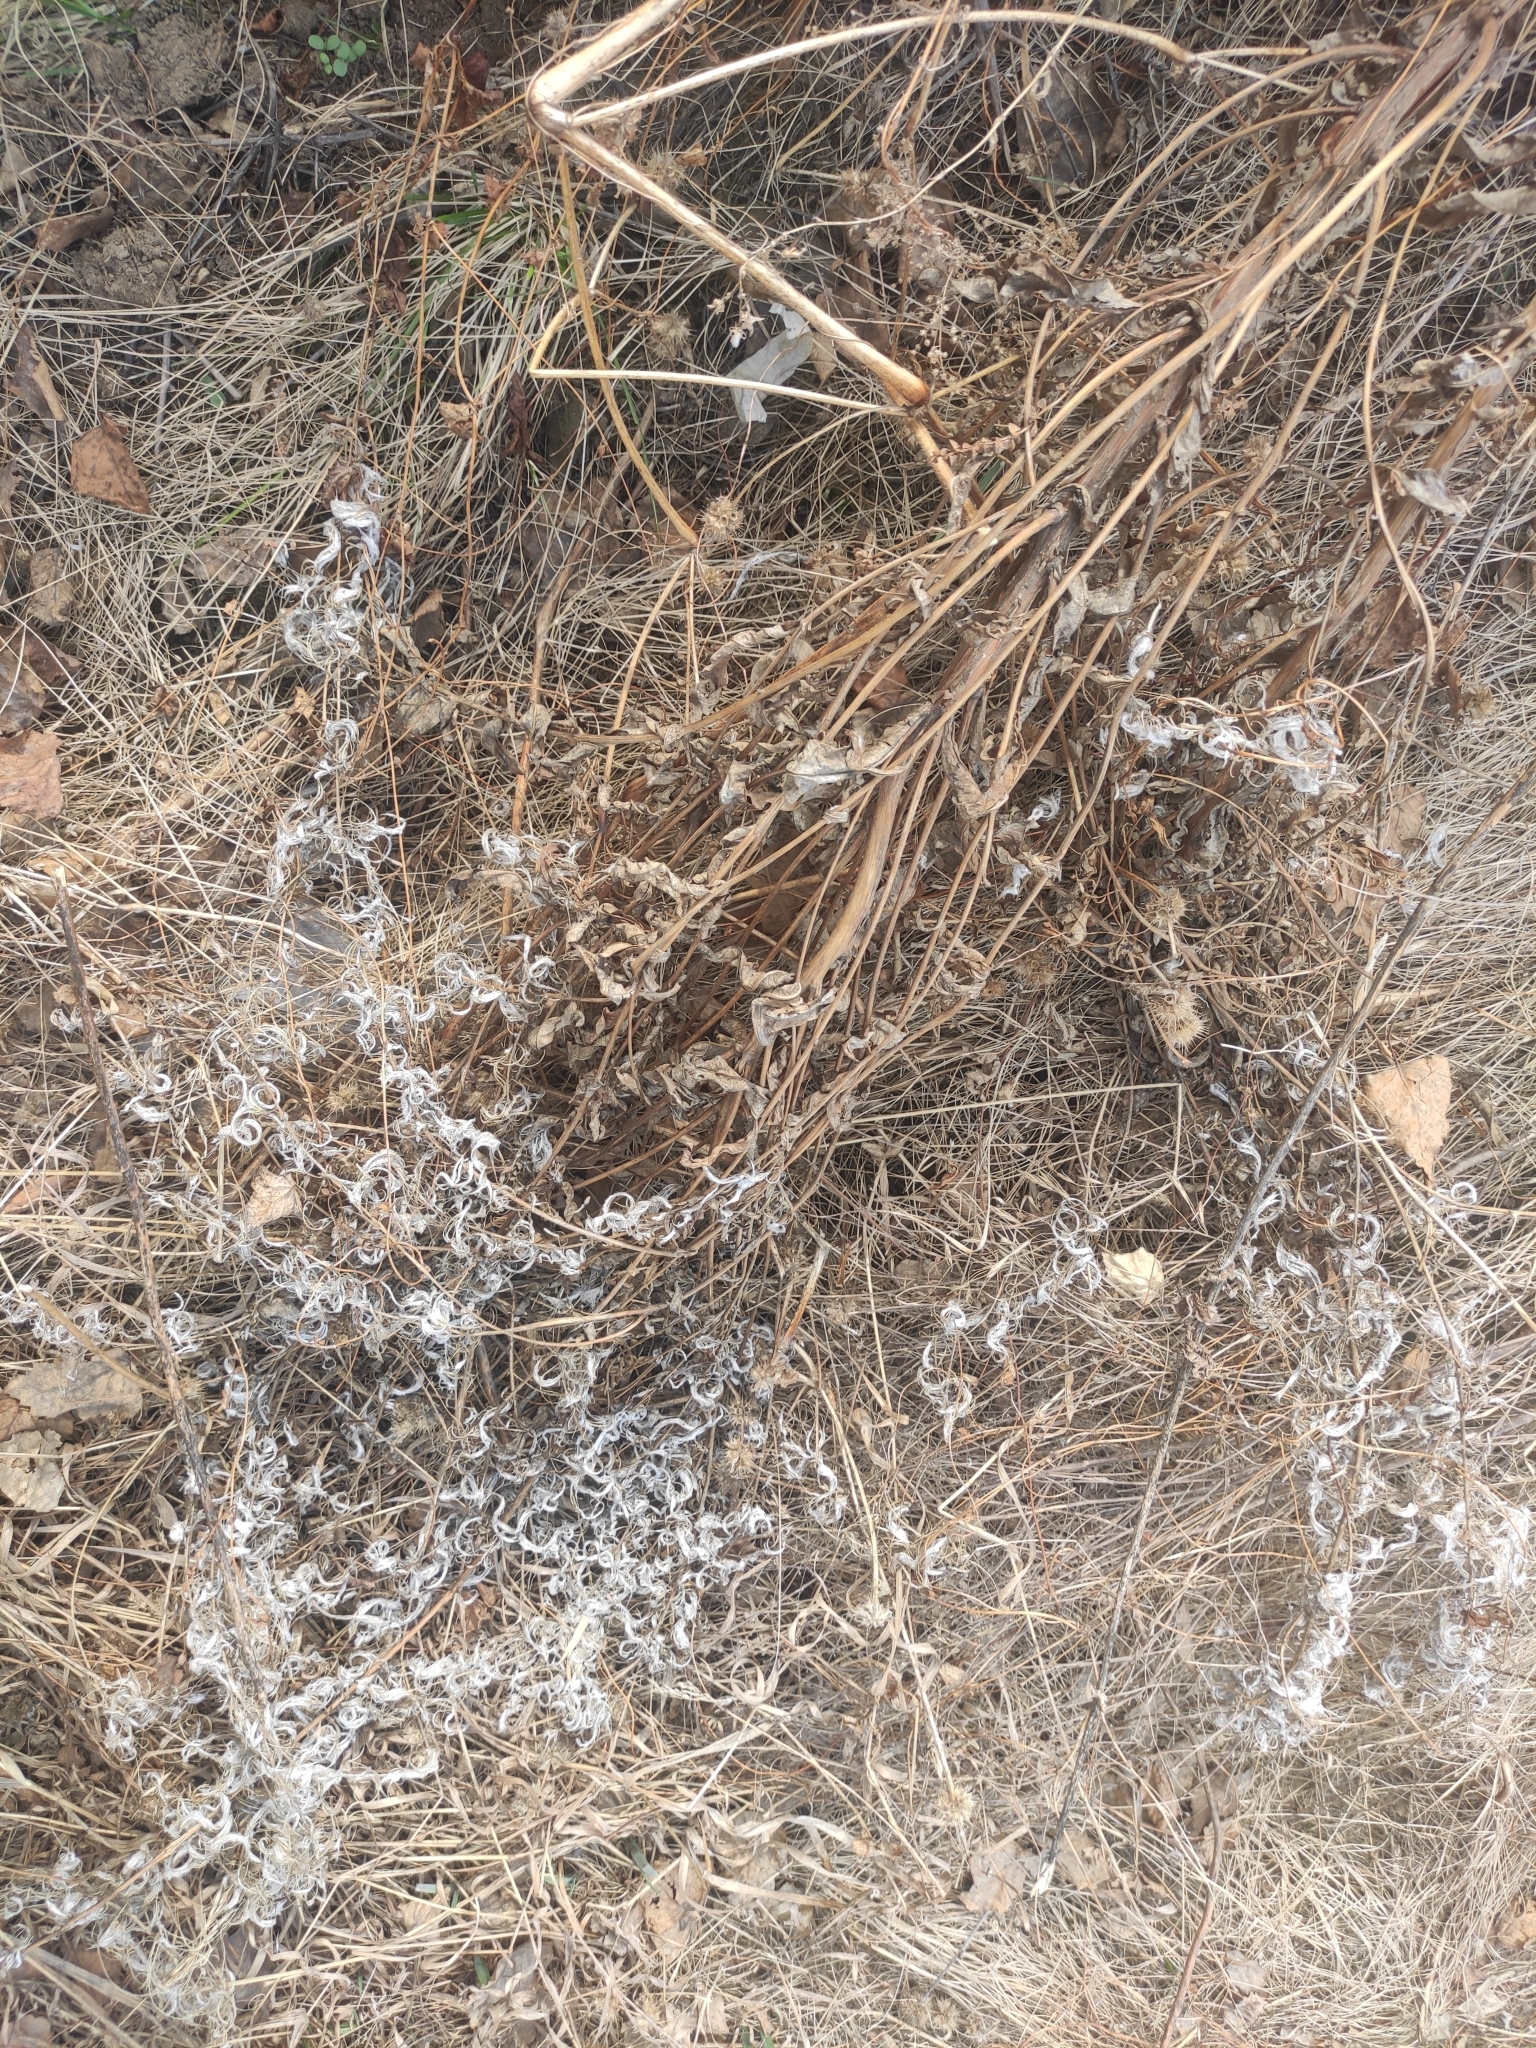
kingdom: Plantae
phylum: Tracheophyta
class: Magnoliopsida
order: Myrtales
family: Onagraceae
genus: Chamaenerion
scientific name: Chamaenerion angustifolium
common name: Fireweed
